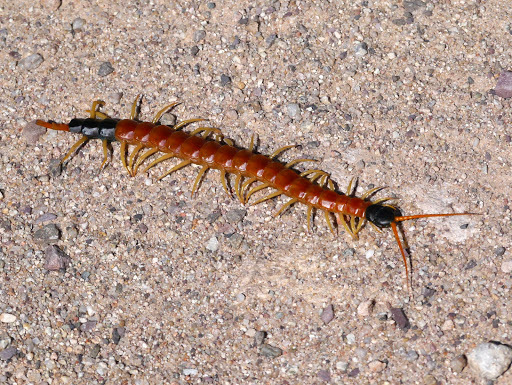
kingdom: Animalia
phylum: Arthropoda
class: Chilopoda
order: Scolopendromorpha
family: Scolopendridae
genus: Scolopendra
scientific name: Scolopendra heros
